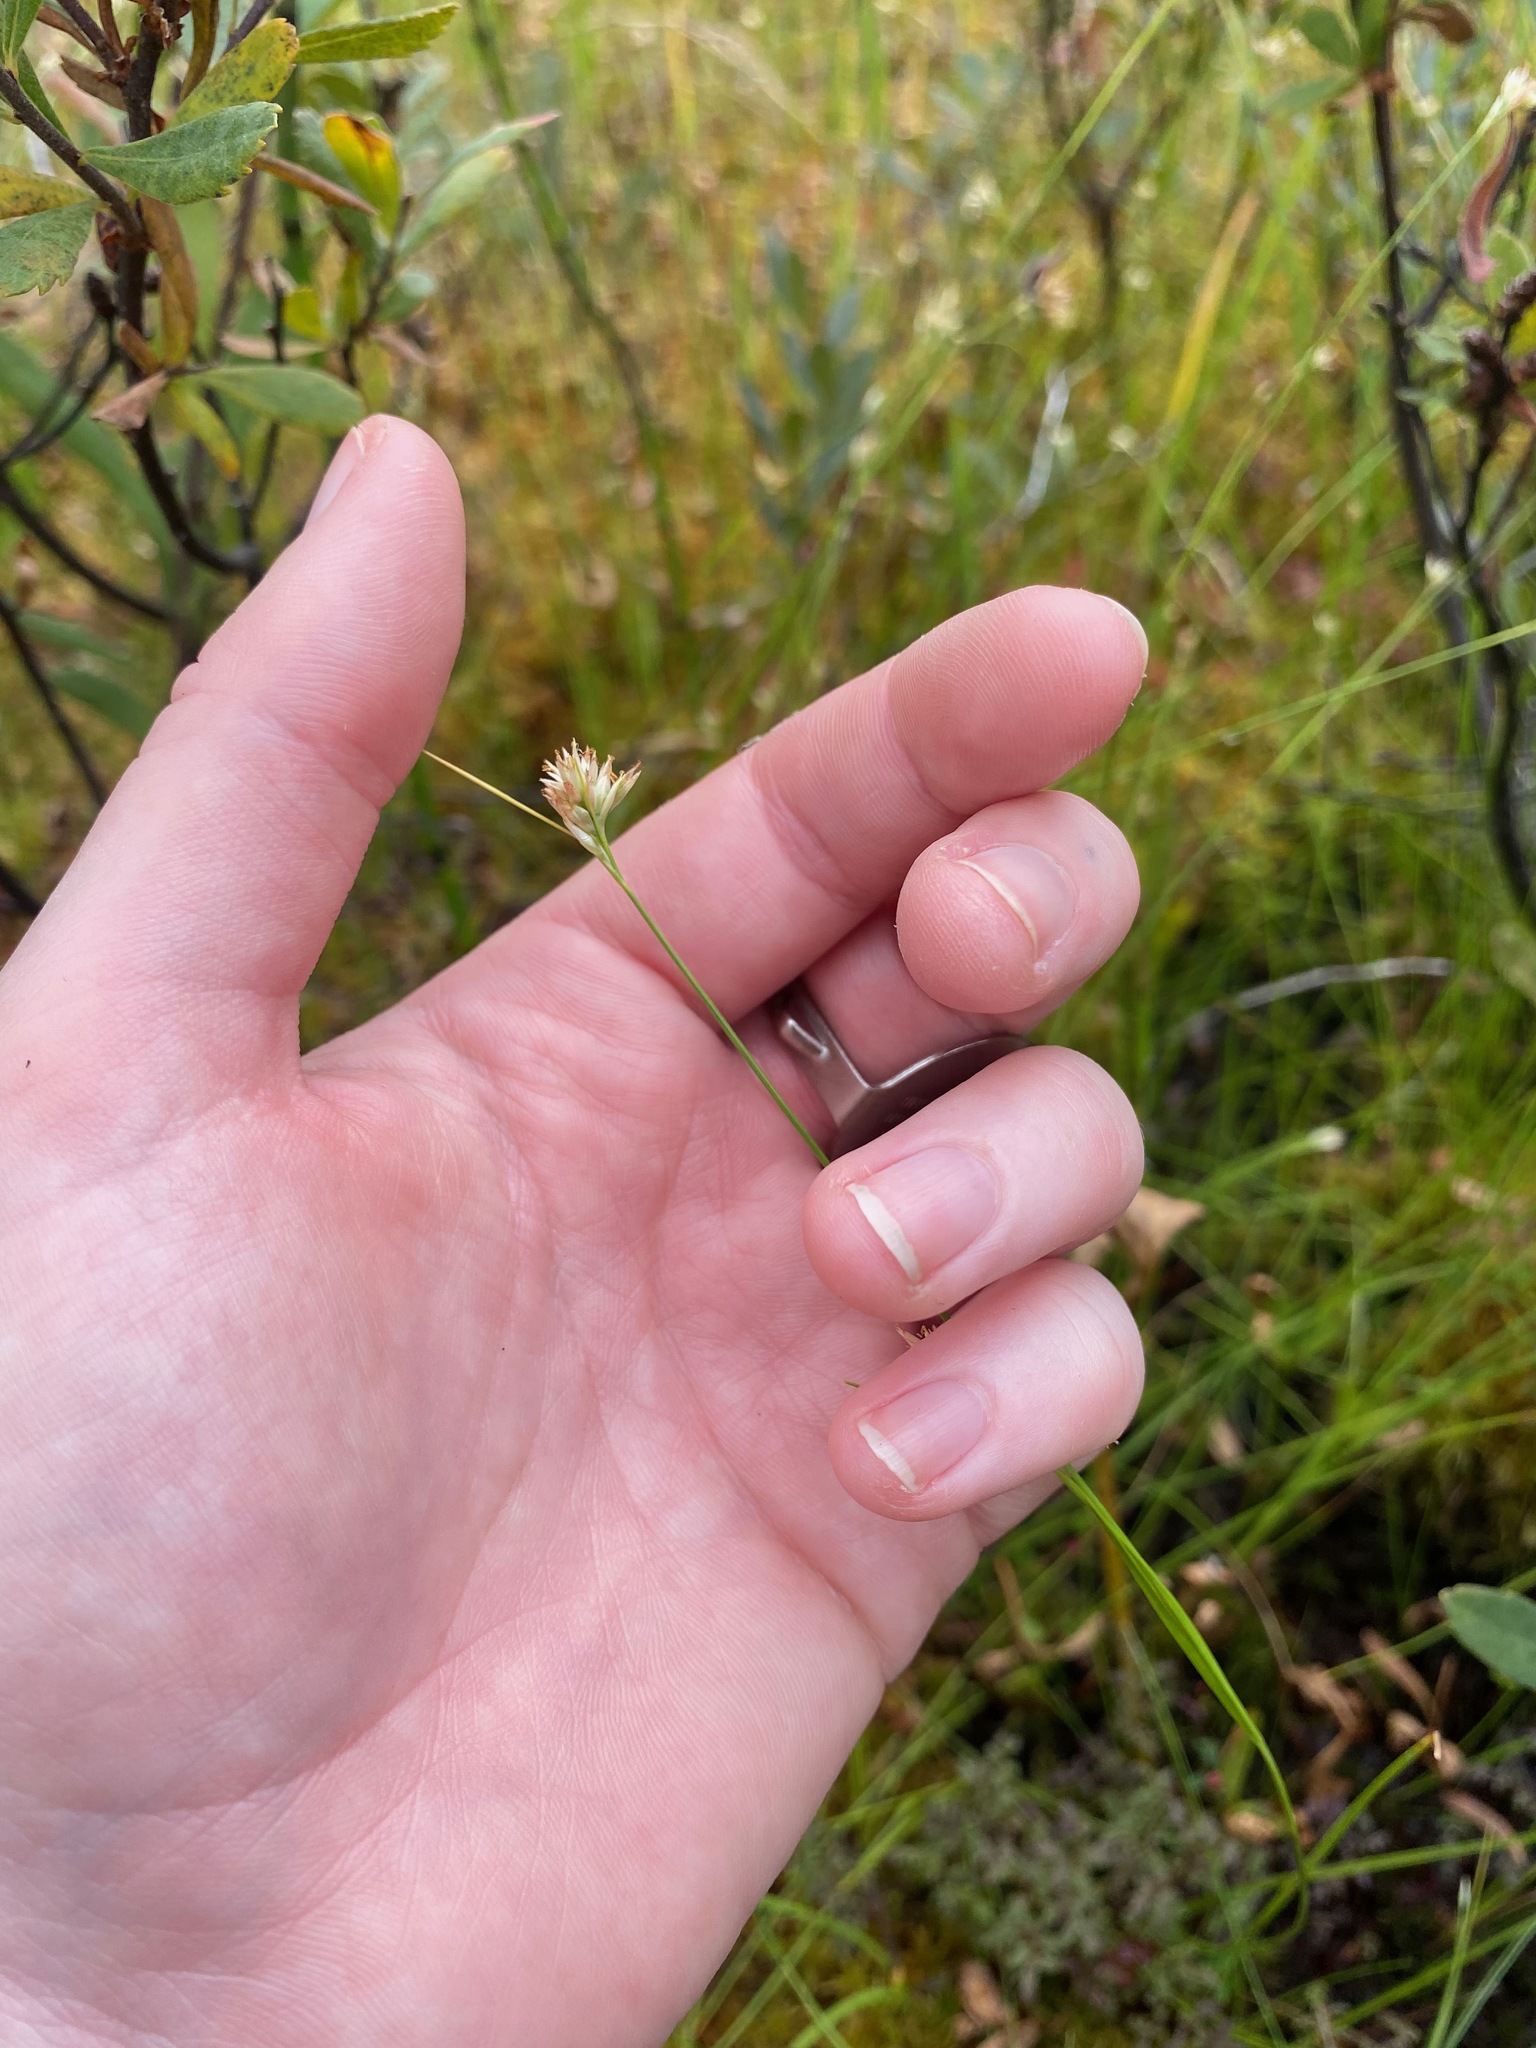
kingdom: Plantae
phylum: Tracheophyta
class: Liliopsida
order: Poales
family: Cyperaceae
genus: Rhynchospora
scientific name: Rhynchospora alba
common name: White beak-sedge
